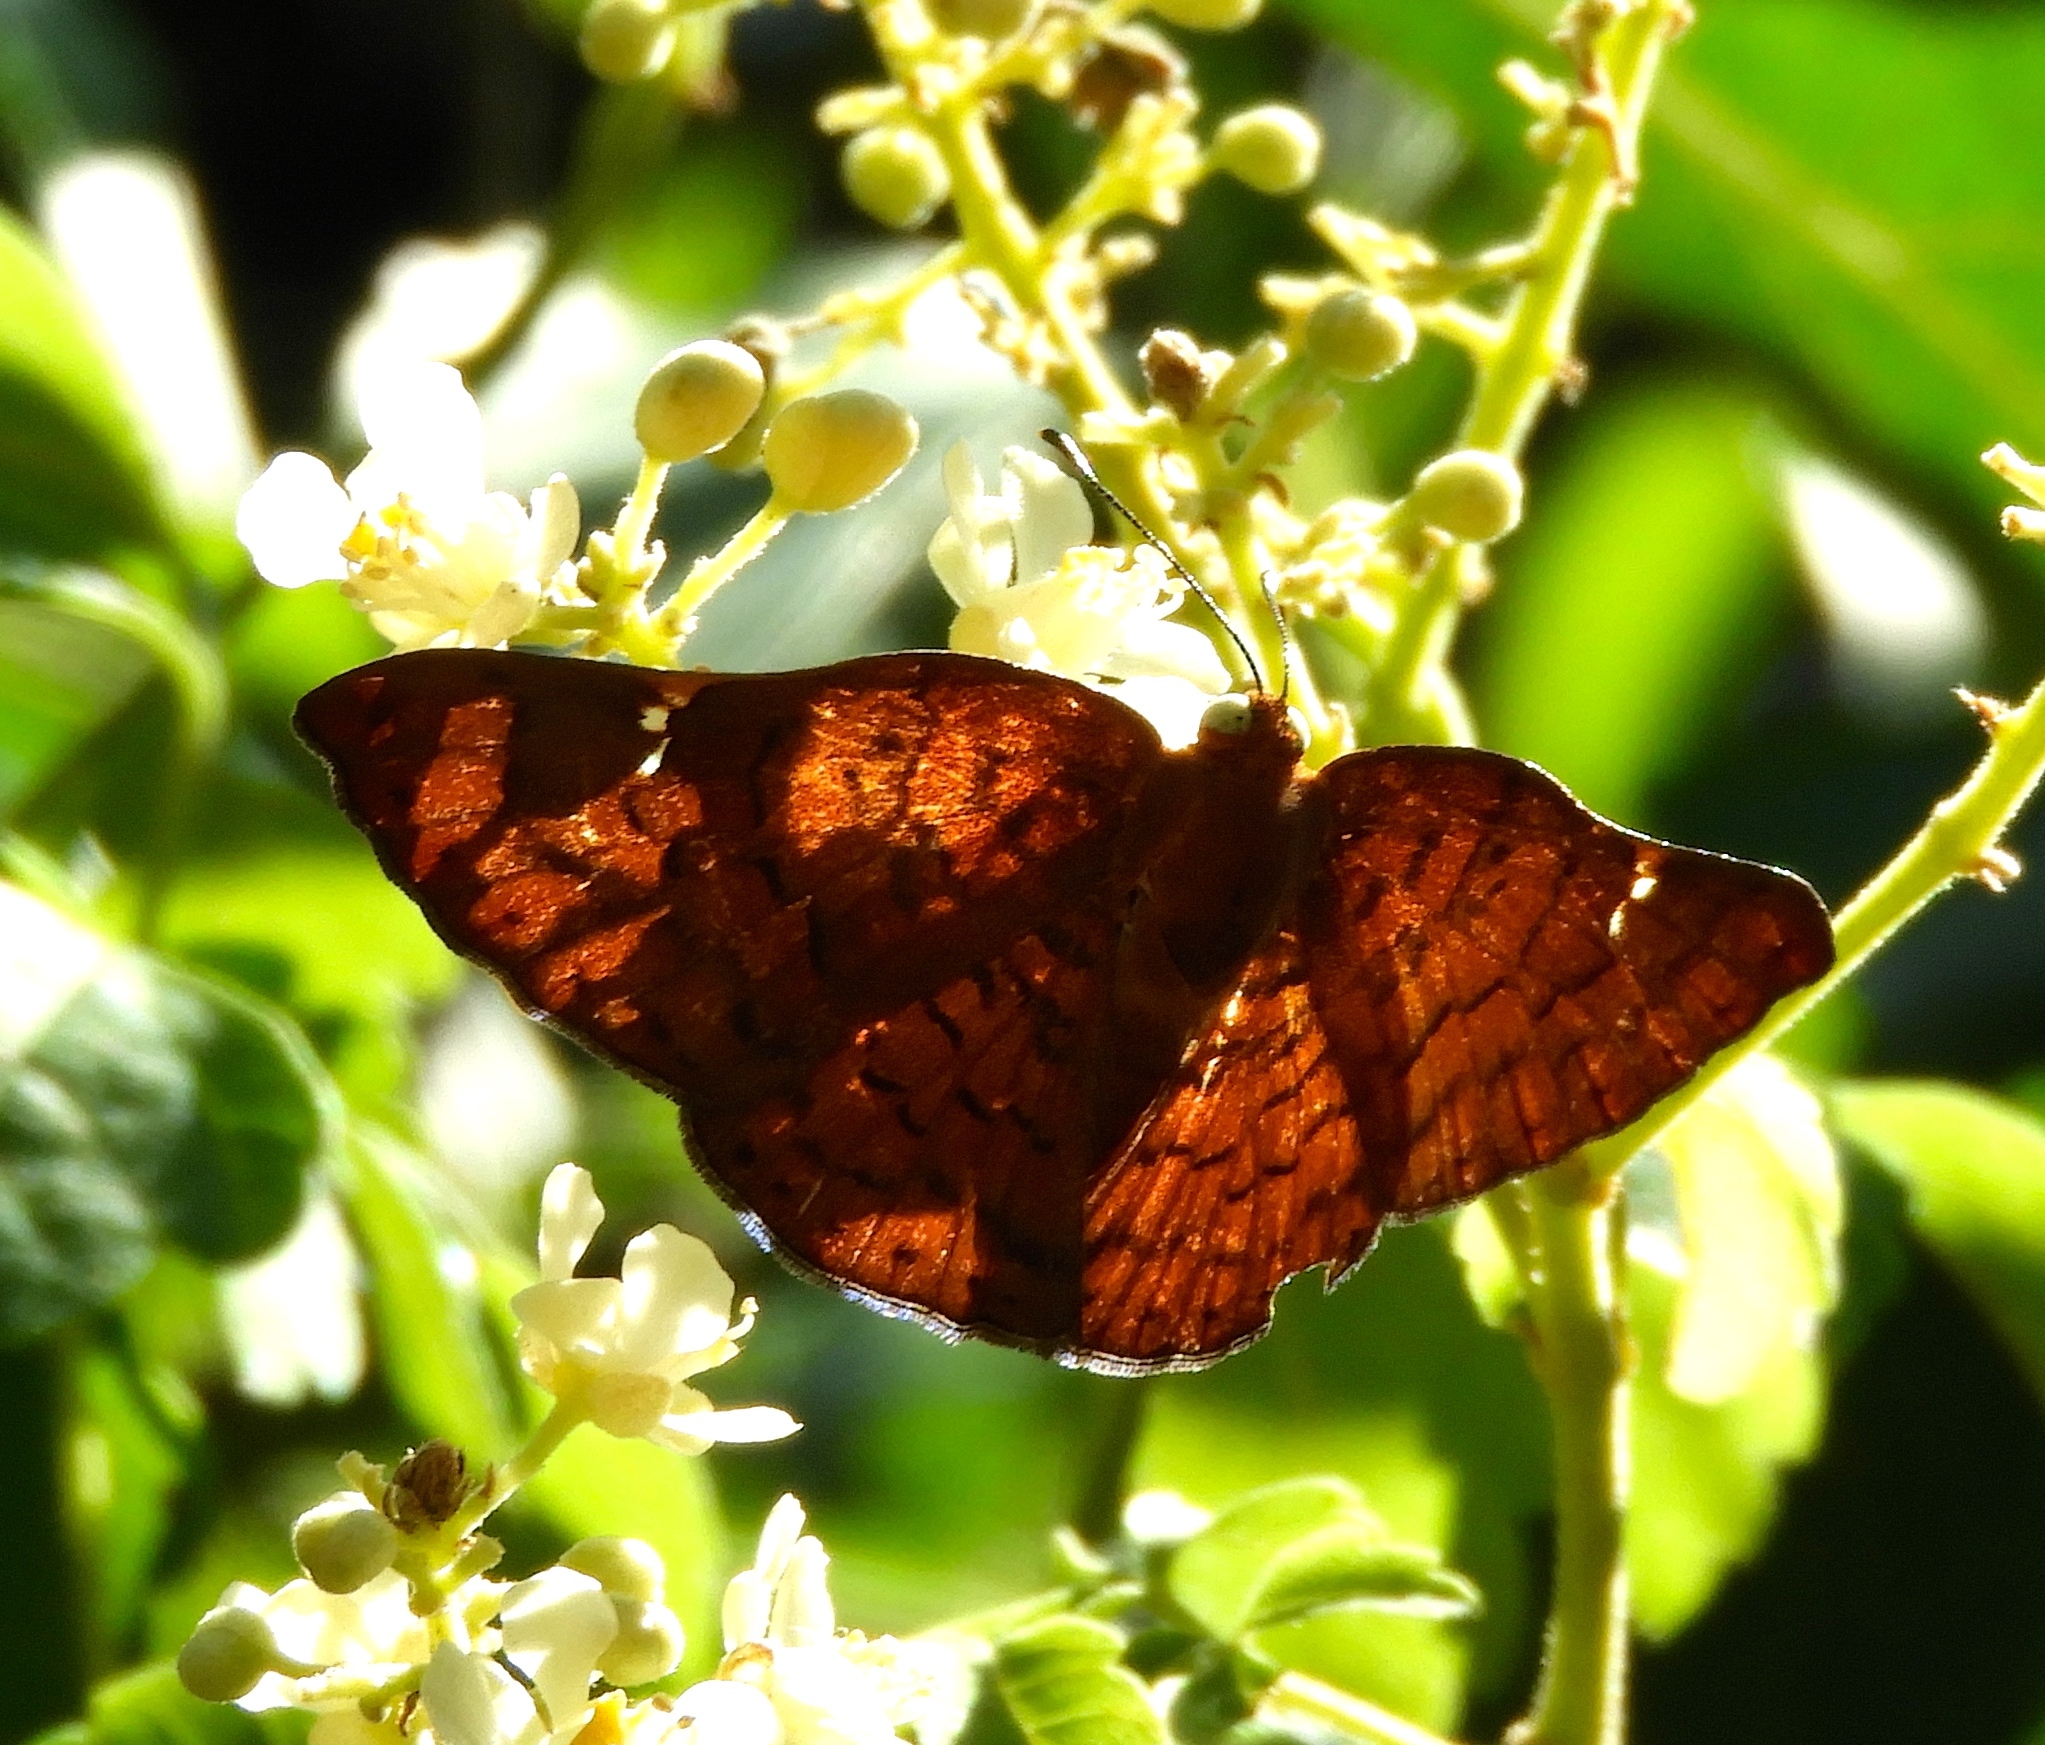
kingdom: Animalia
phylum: Arthropoda
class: Insecta
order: Lepidoptera
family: Riodinidae
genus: Curvie
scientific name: Curvie emesia
